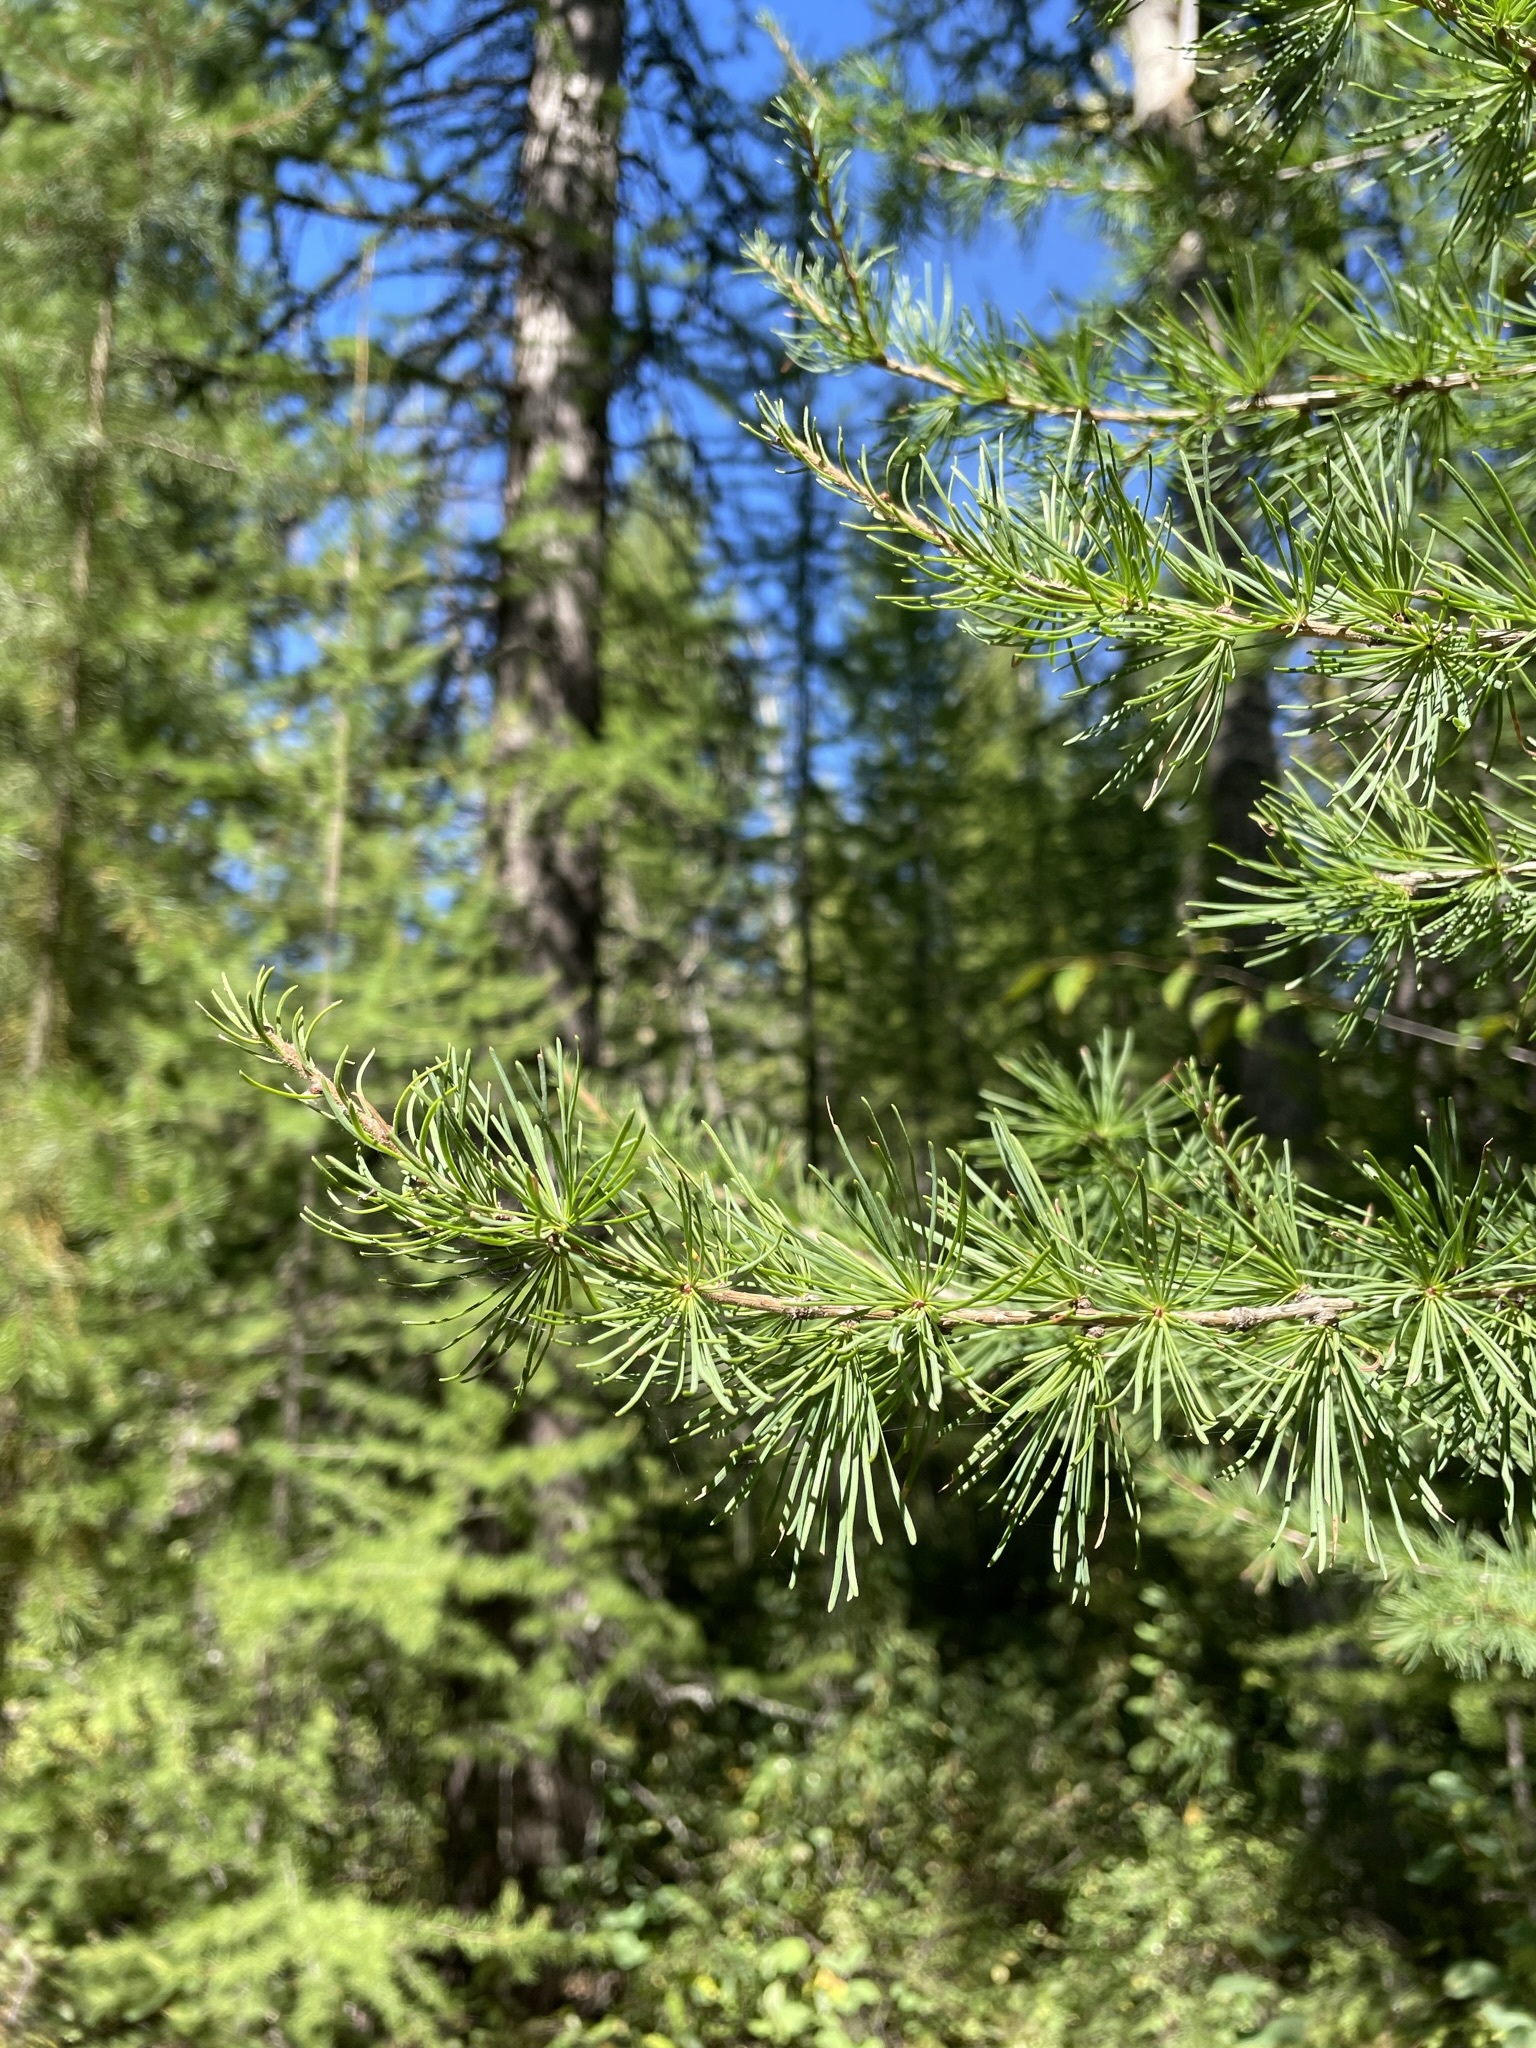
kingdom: Plantae
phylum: Tracheophyta
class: Pinopsida
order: Pinales
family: Pinaceae
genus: Larix
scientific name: Larix occidentalis
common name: Western larch
